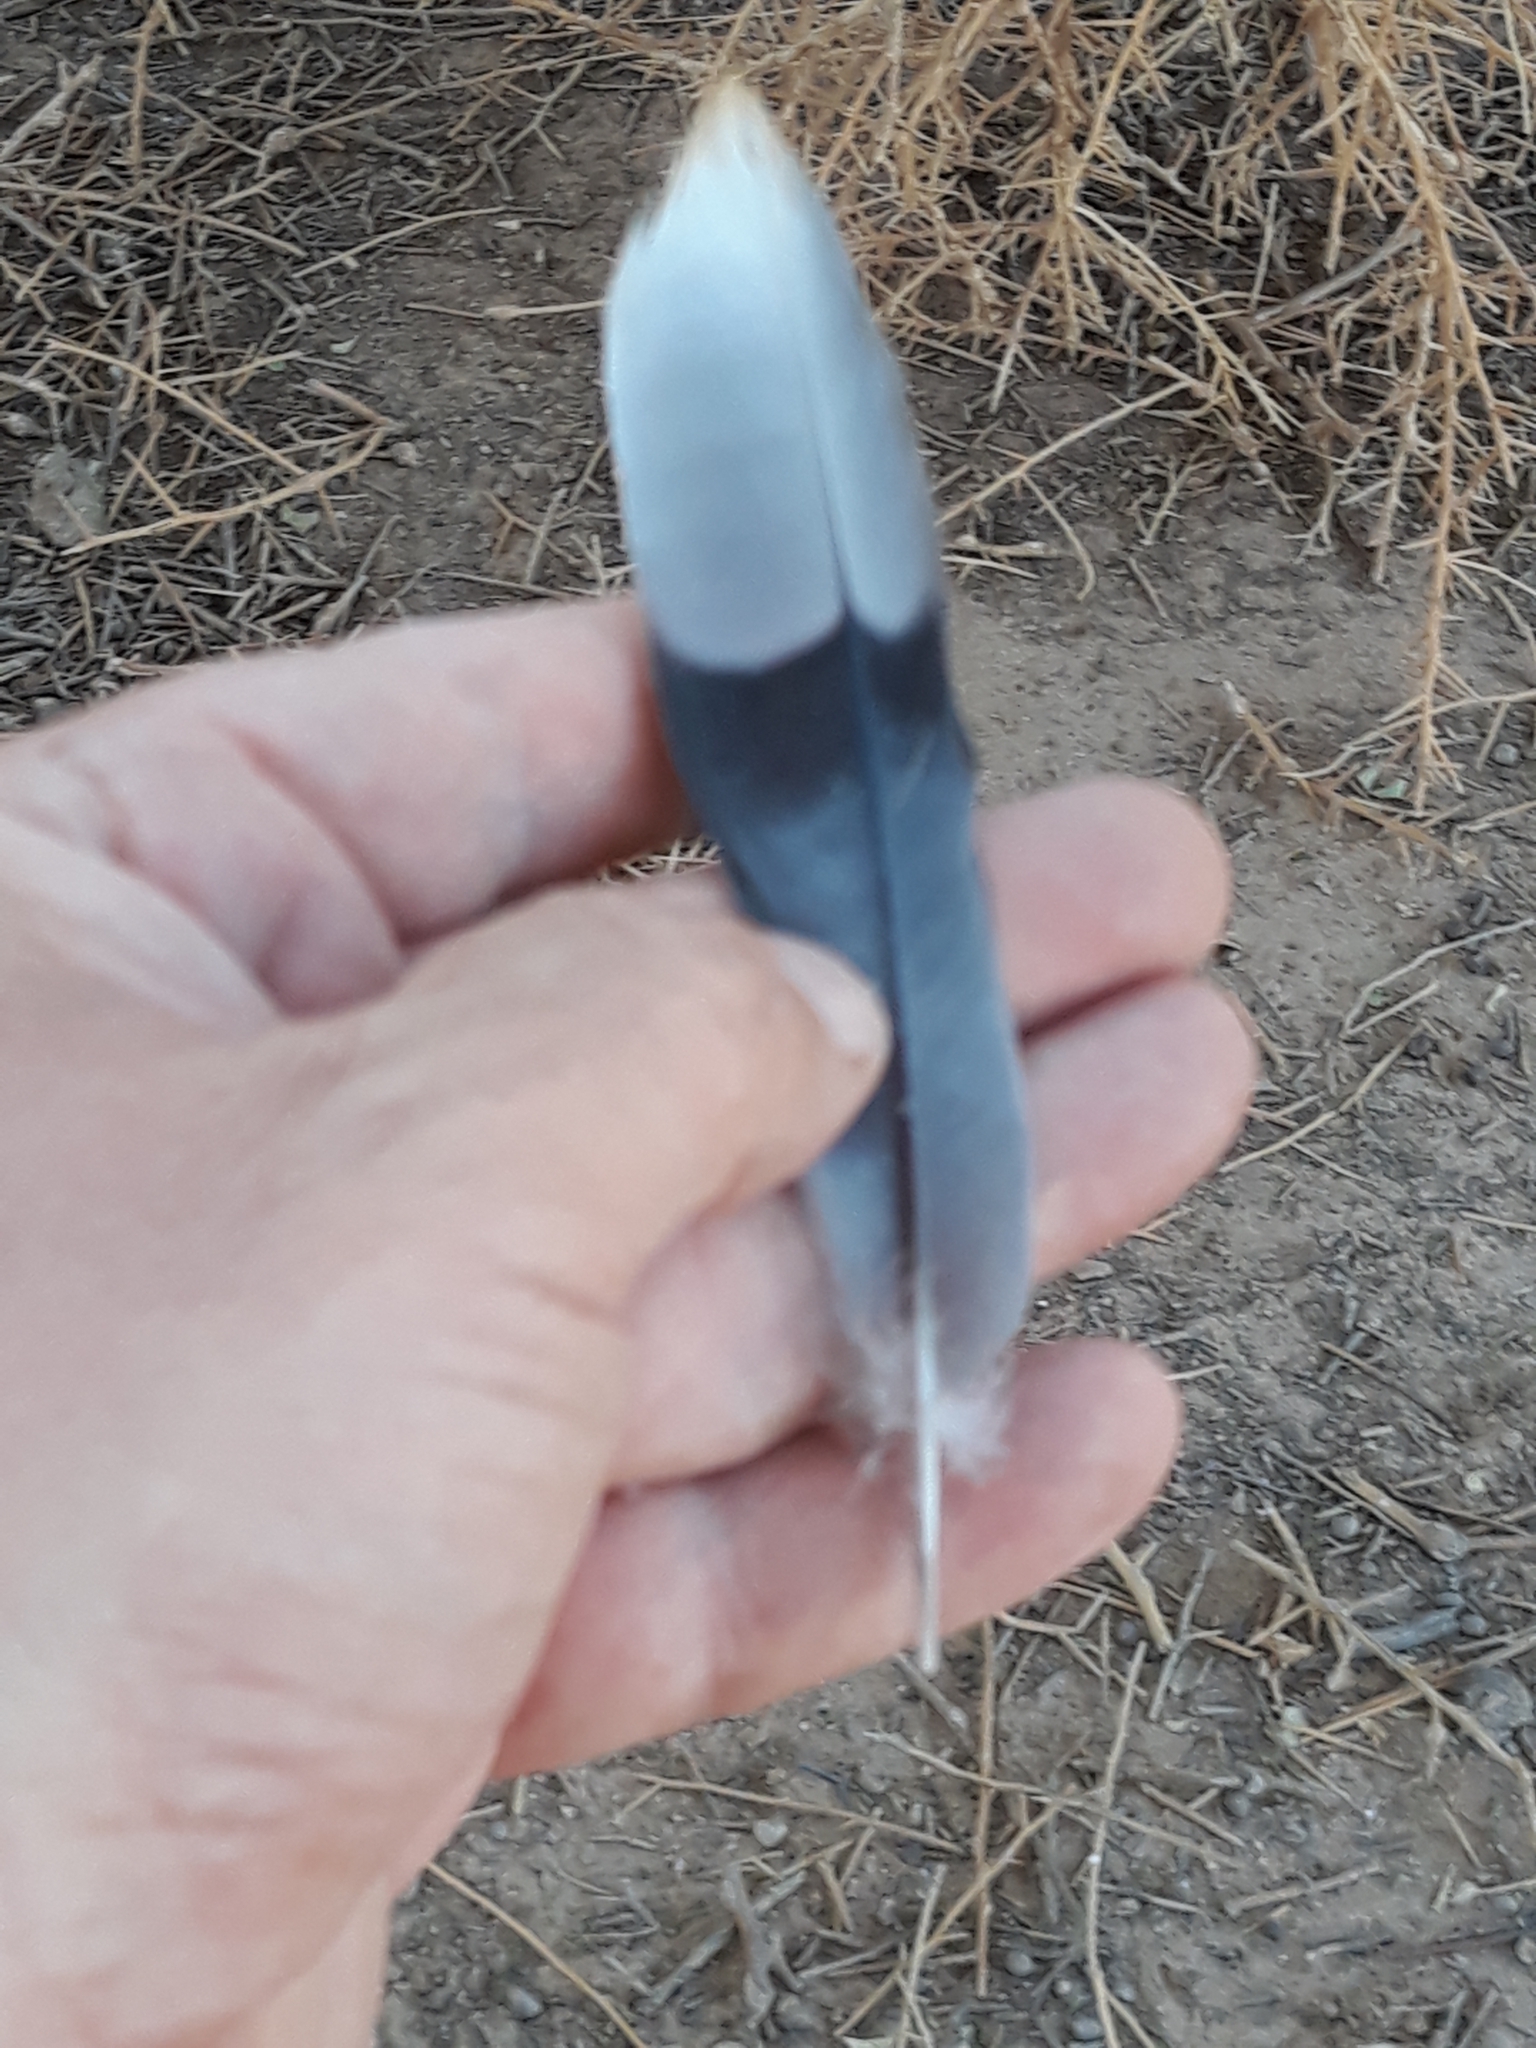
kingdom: Animalia
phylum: Chordata
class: Aves
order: Columbiformes
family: Columbidae
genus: Spilopelia
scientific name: Spilopelia senegalensis
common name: Laughing dove
